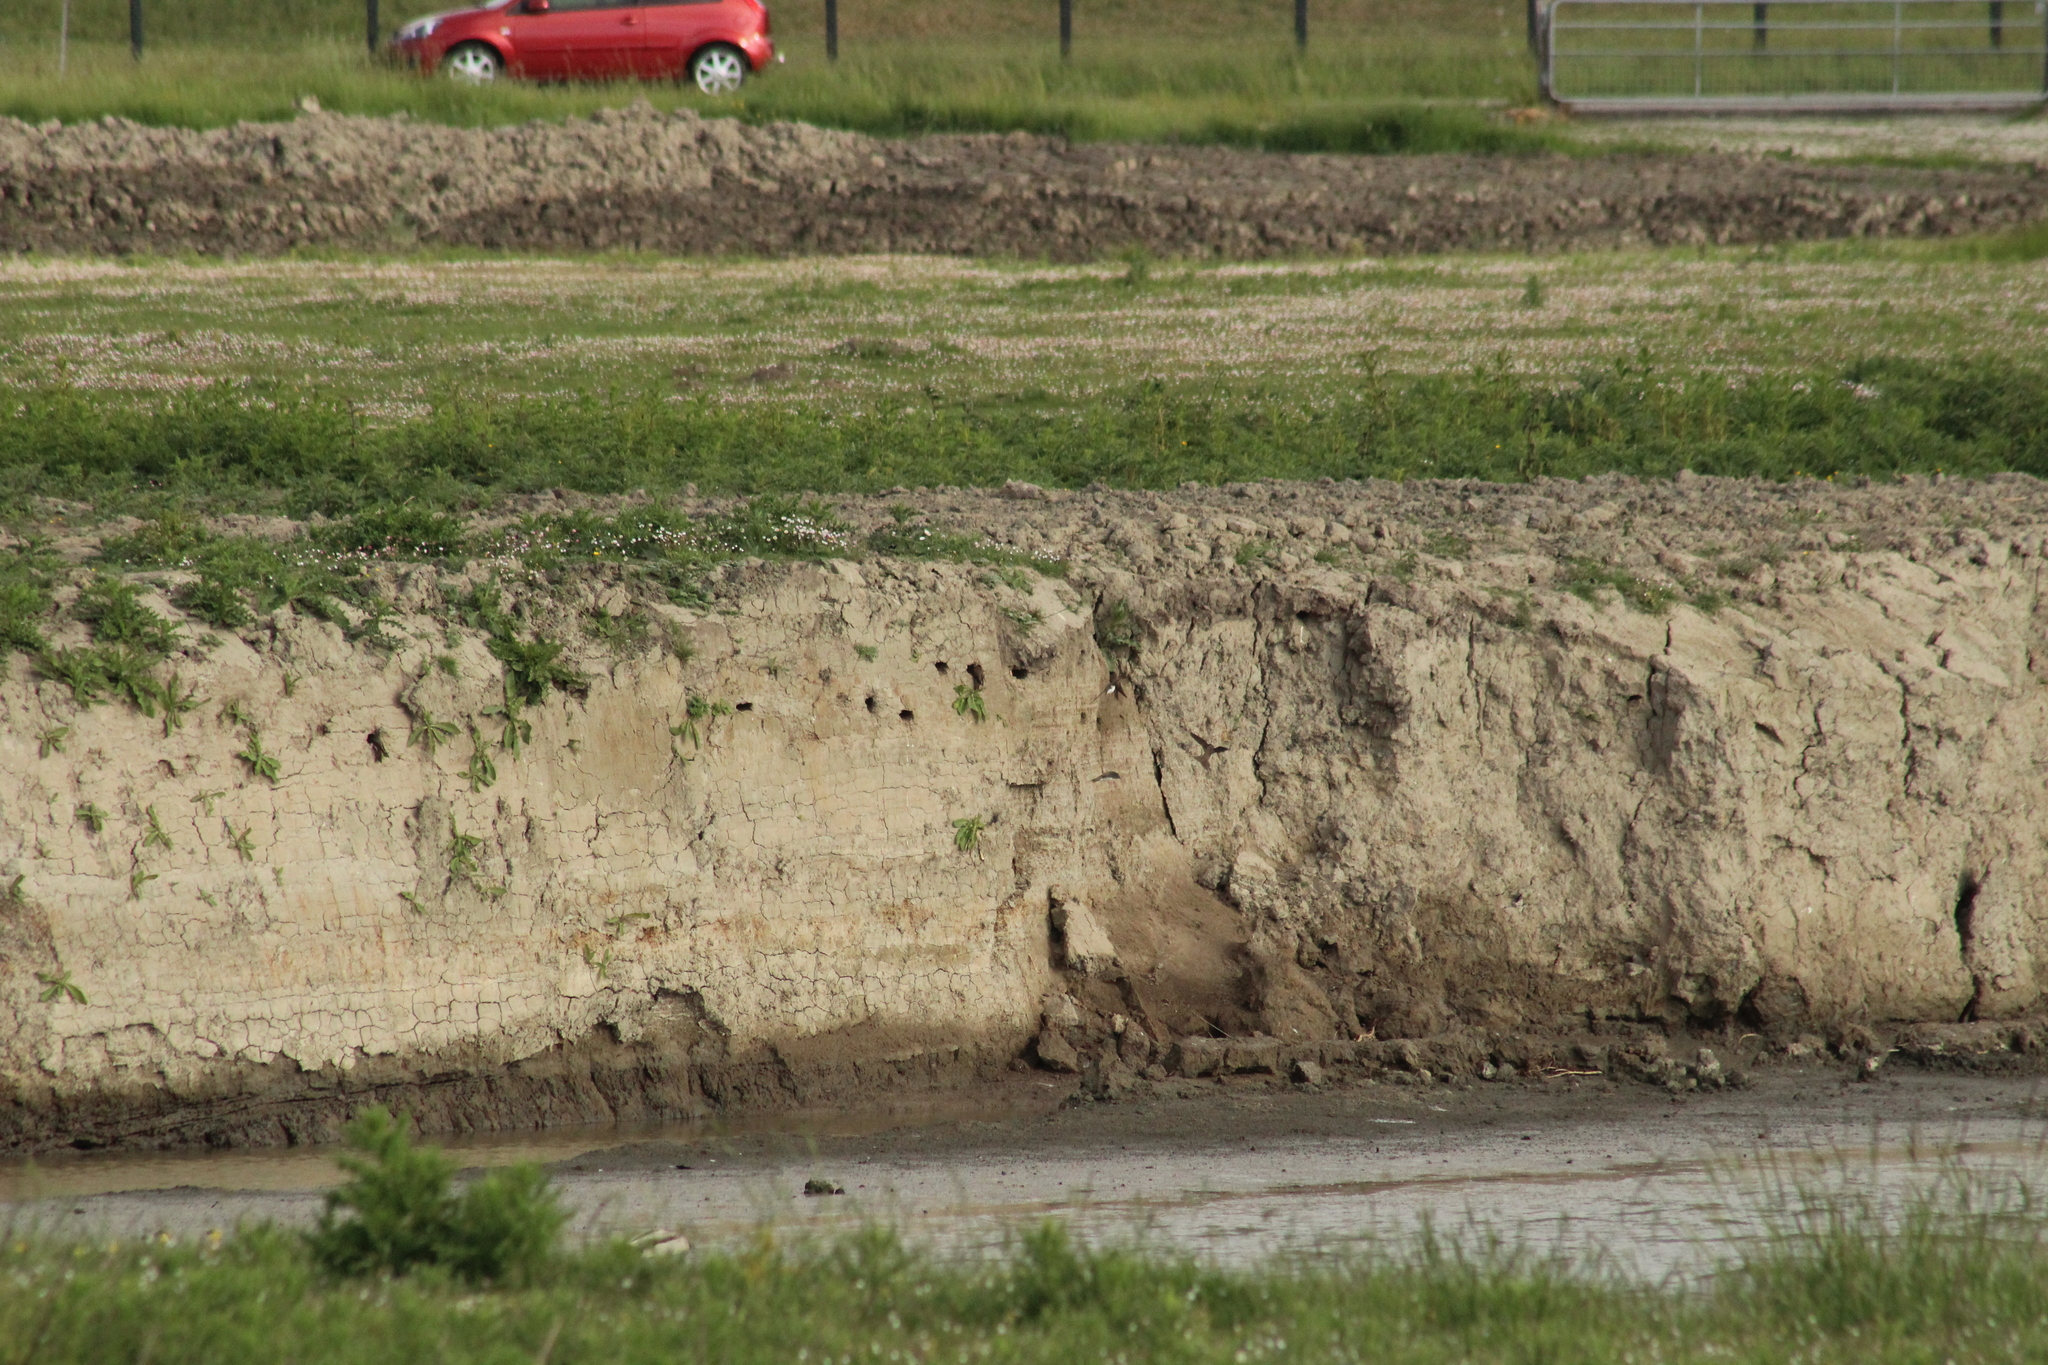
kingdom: Animalia
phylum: Chordata
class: Aves
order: Passeriformes
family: Hirundinidae
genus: Riparia
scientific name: Riparia riparia
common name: Sand martin
